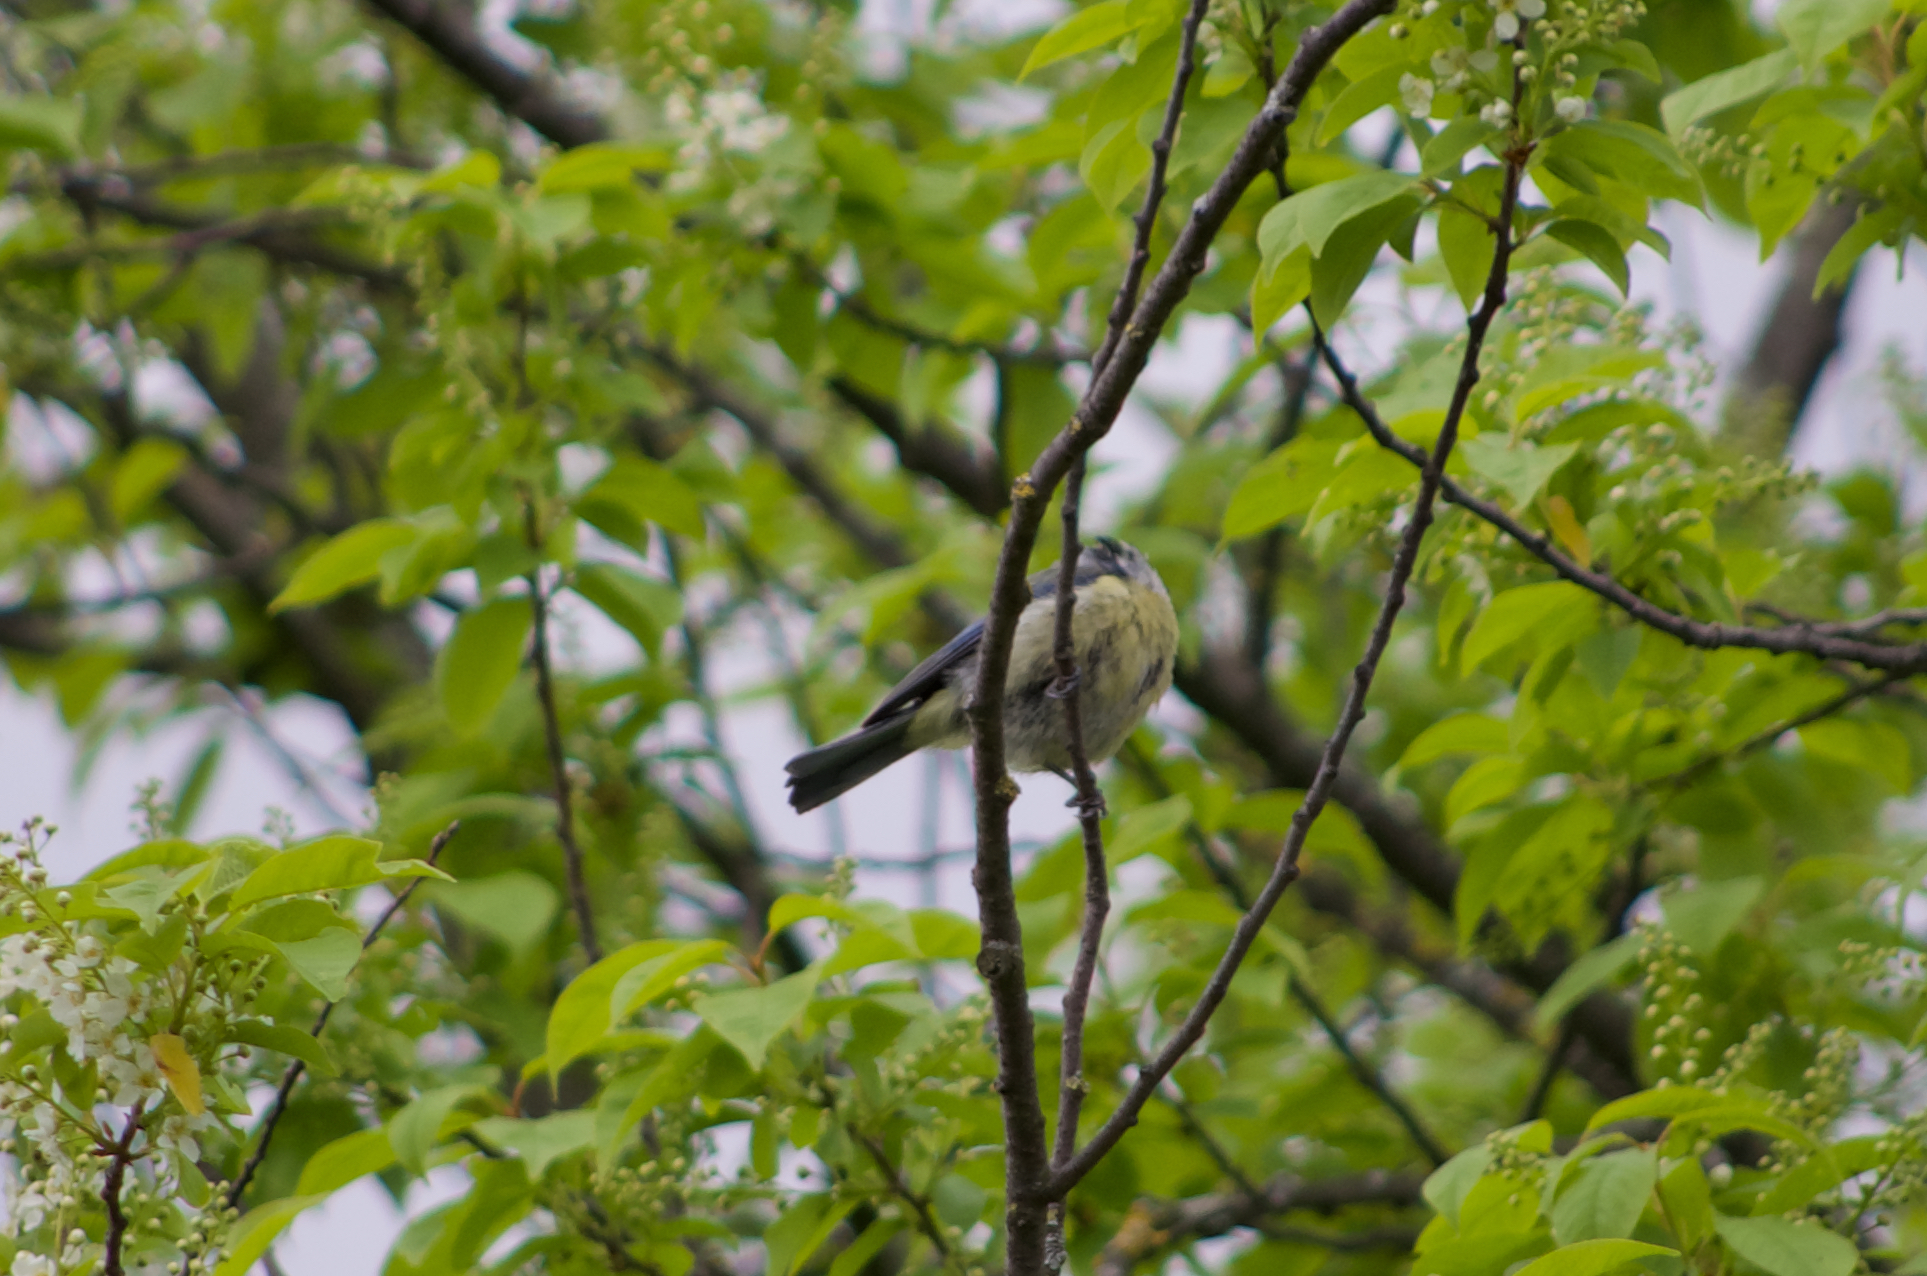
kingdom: Animalia
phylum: Chordata
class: Aves
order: Passeriformes
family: Paridae
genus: Cyanistes
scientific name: Cyanistes caeruleus
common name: Eurasian blue tit
